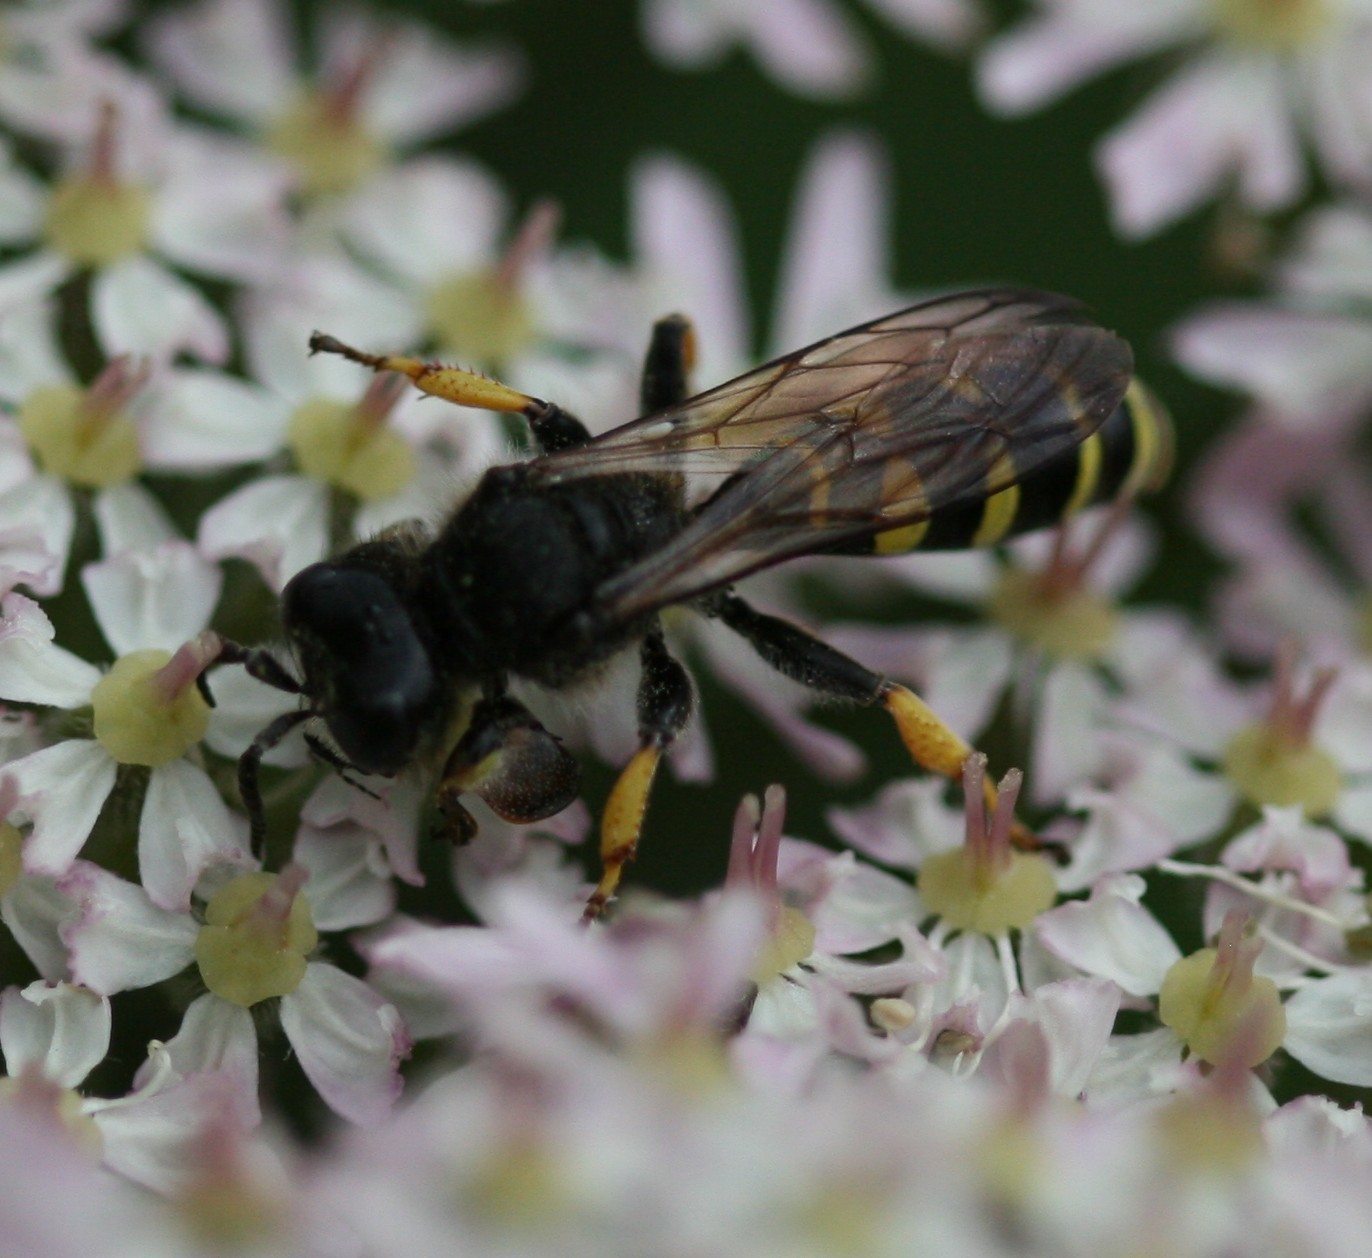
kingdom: Animalia
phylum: Arthropoda
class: Insecta
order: Hymenoptera
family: Crabronidae
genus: Crabro
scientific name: Crabro cribrarius
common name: Slender bodied digger wasp
